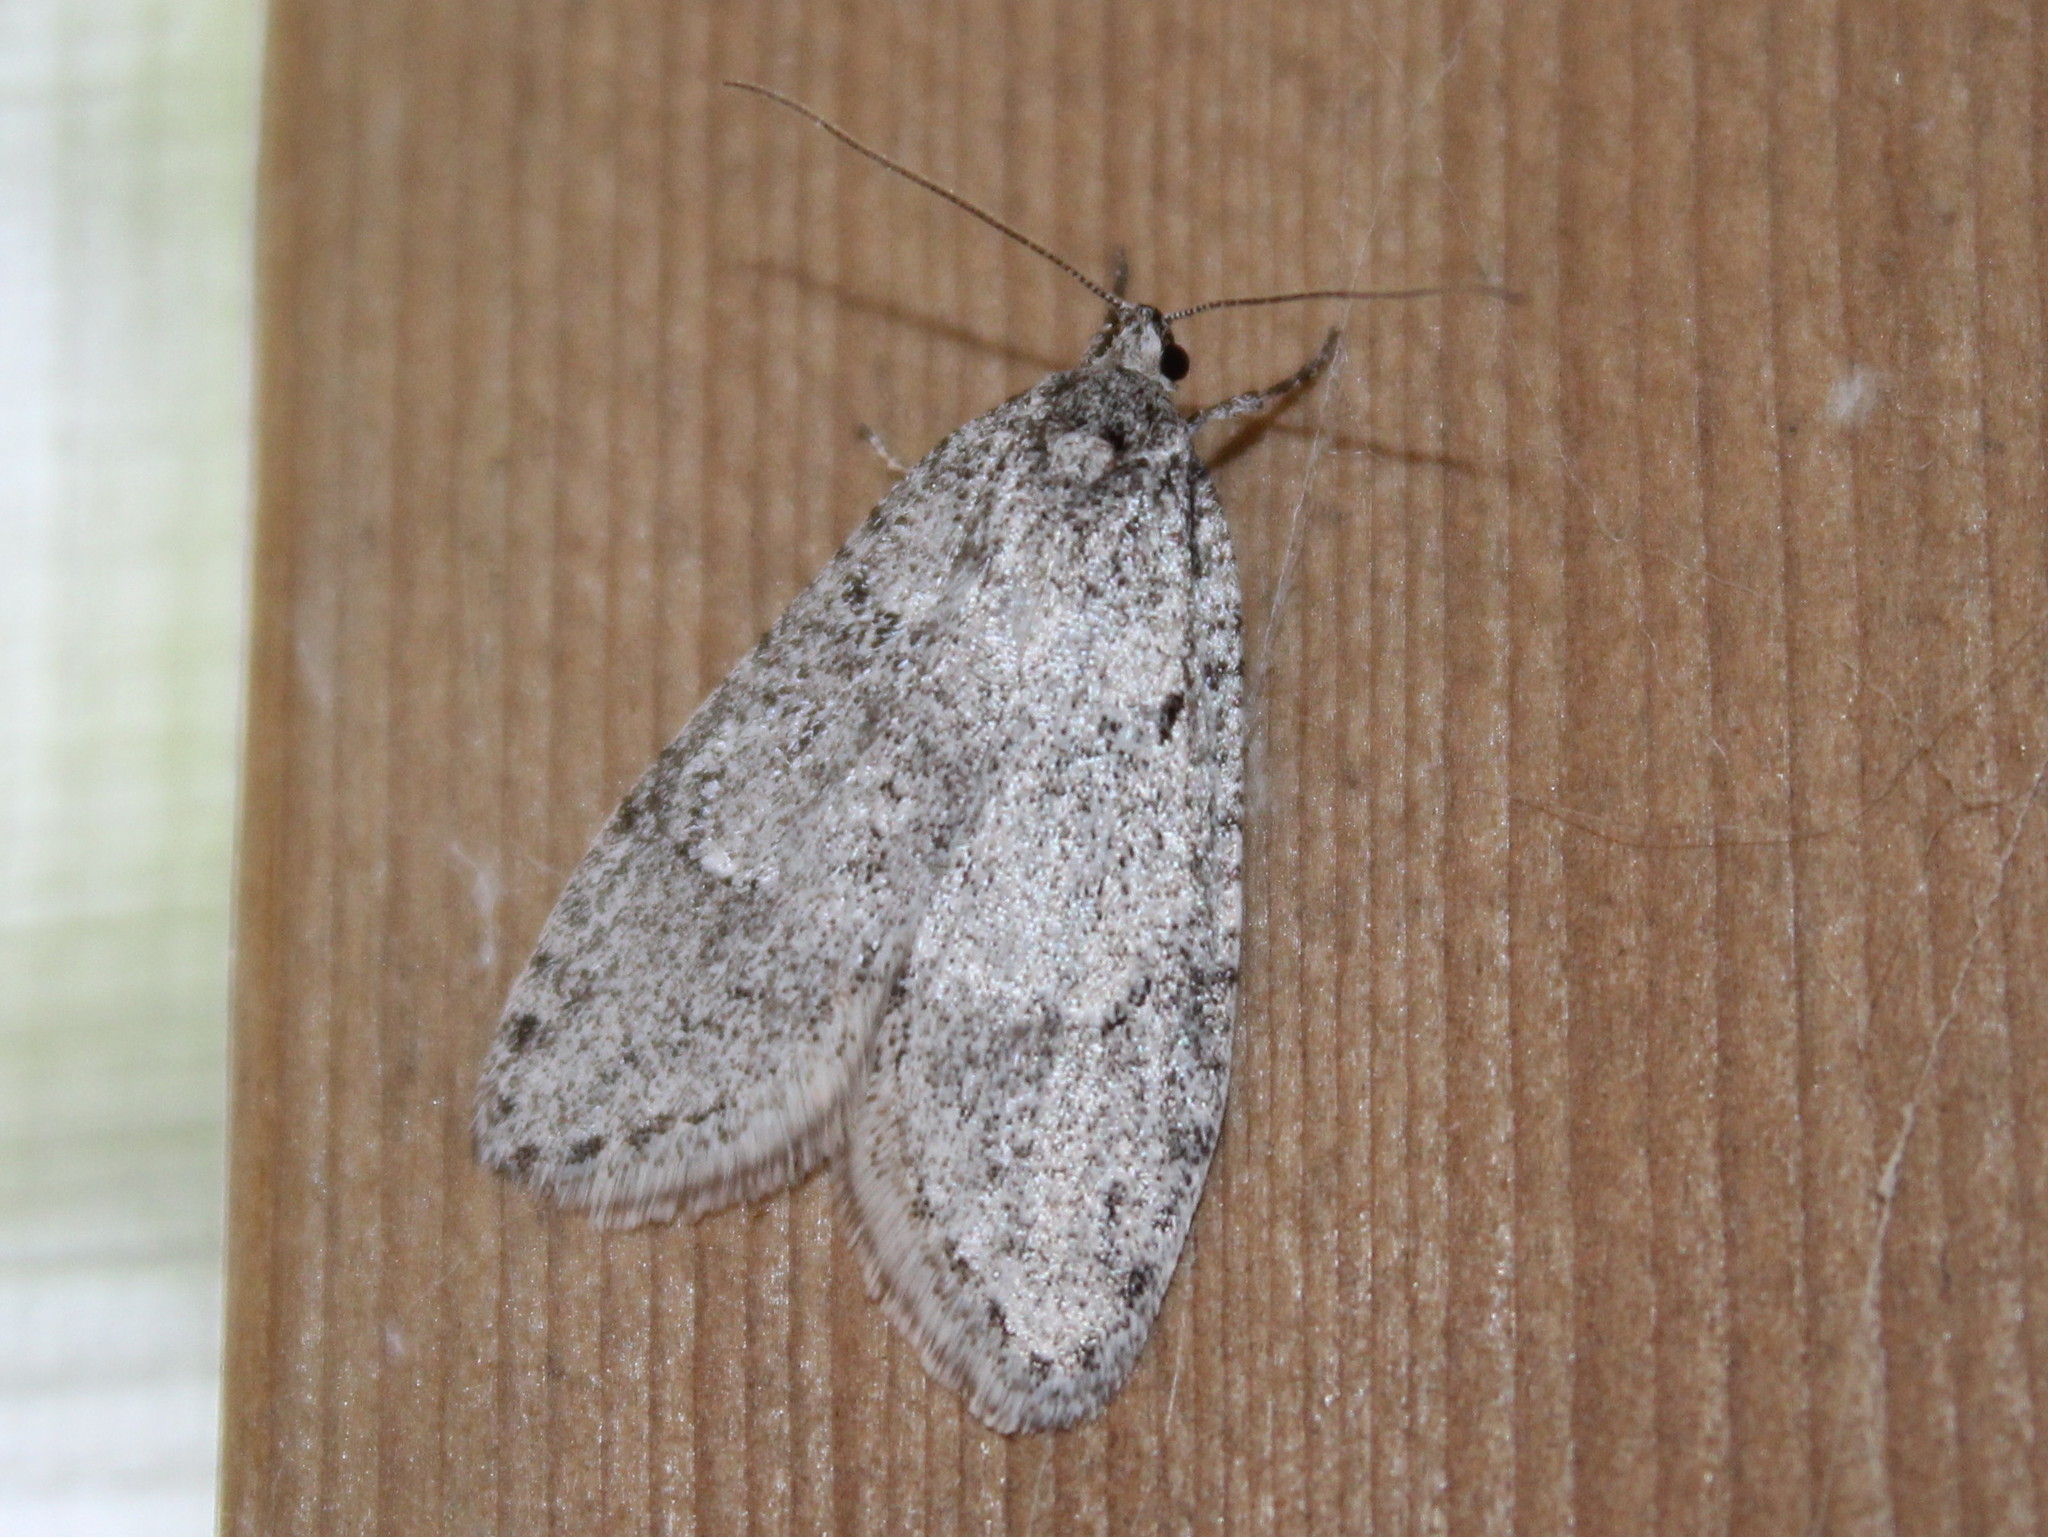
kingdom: Animalia
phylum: Arthropoda
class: Insecta
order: Lepidoptera
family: Depressariidae
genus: Semioscopis
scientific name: Semioscopis inornata
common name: Poplar micromoth
